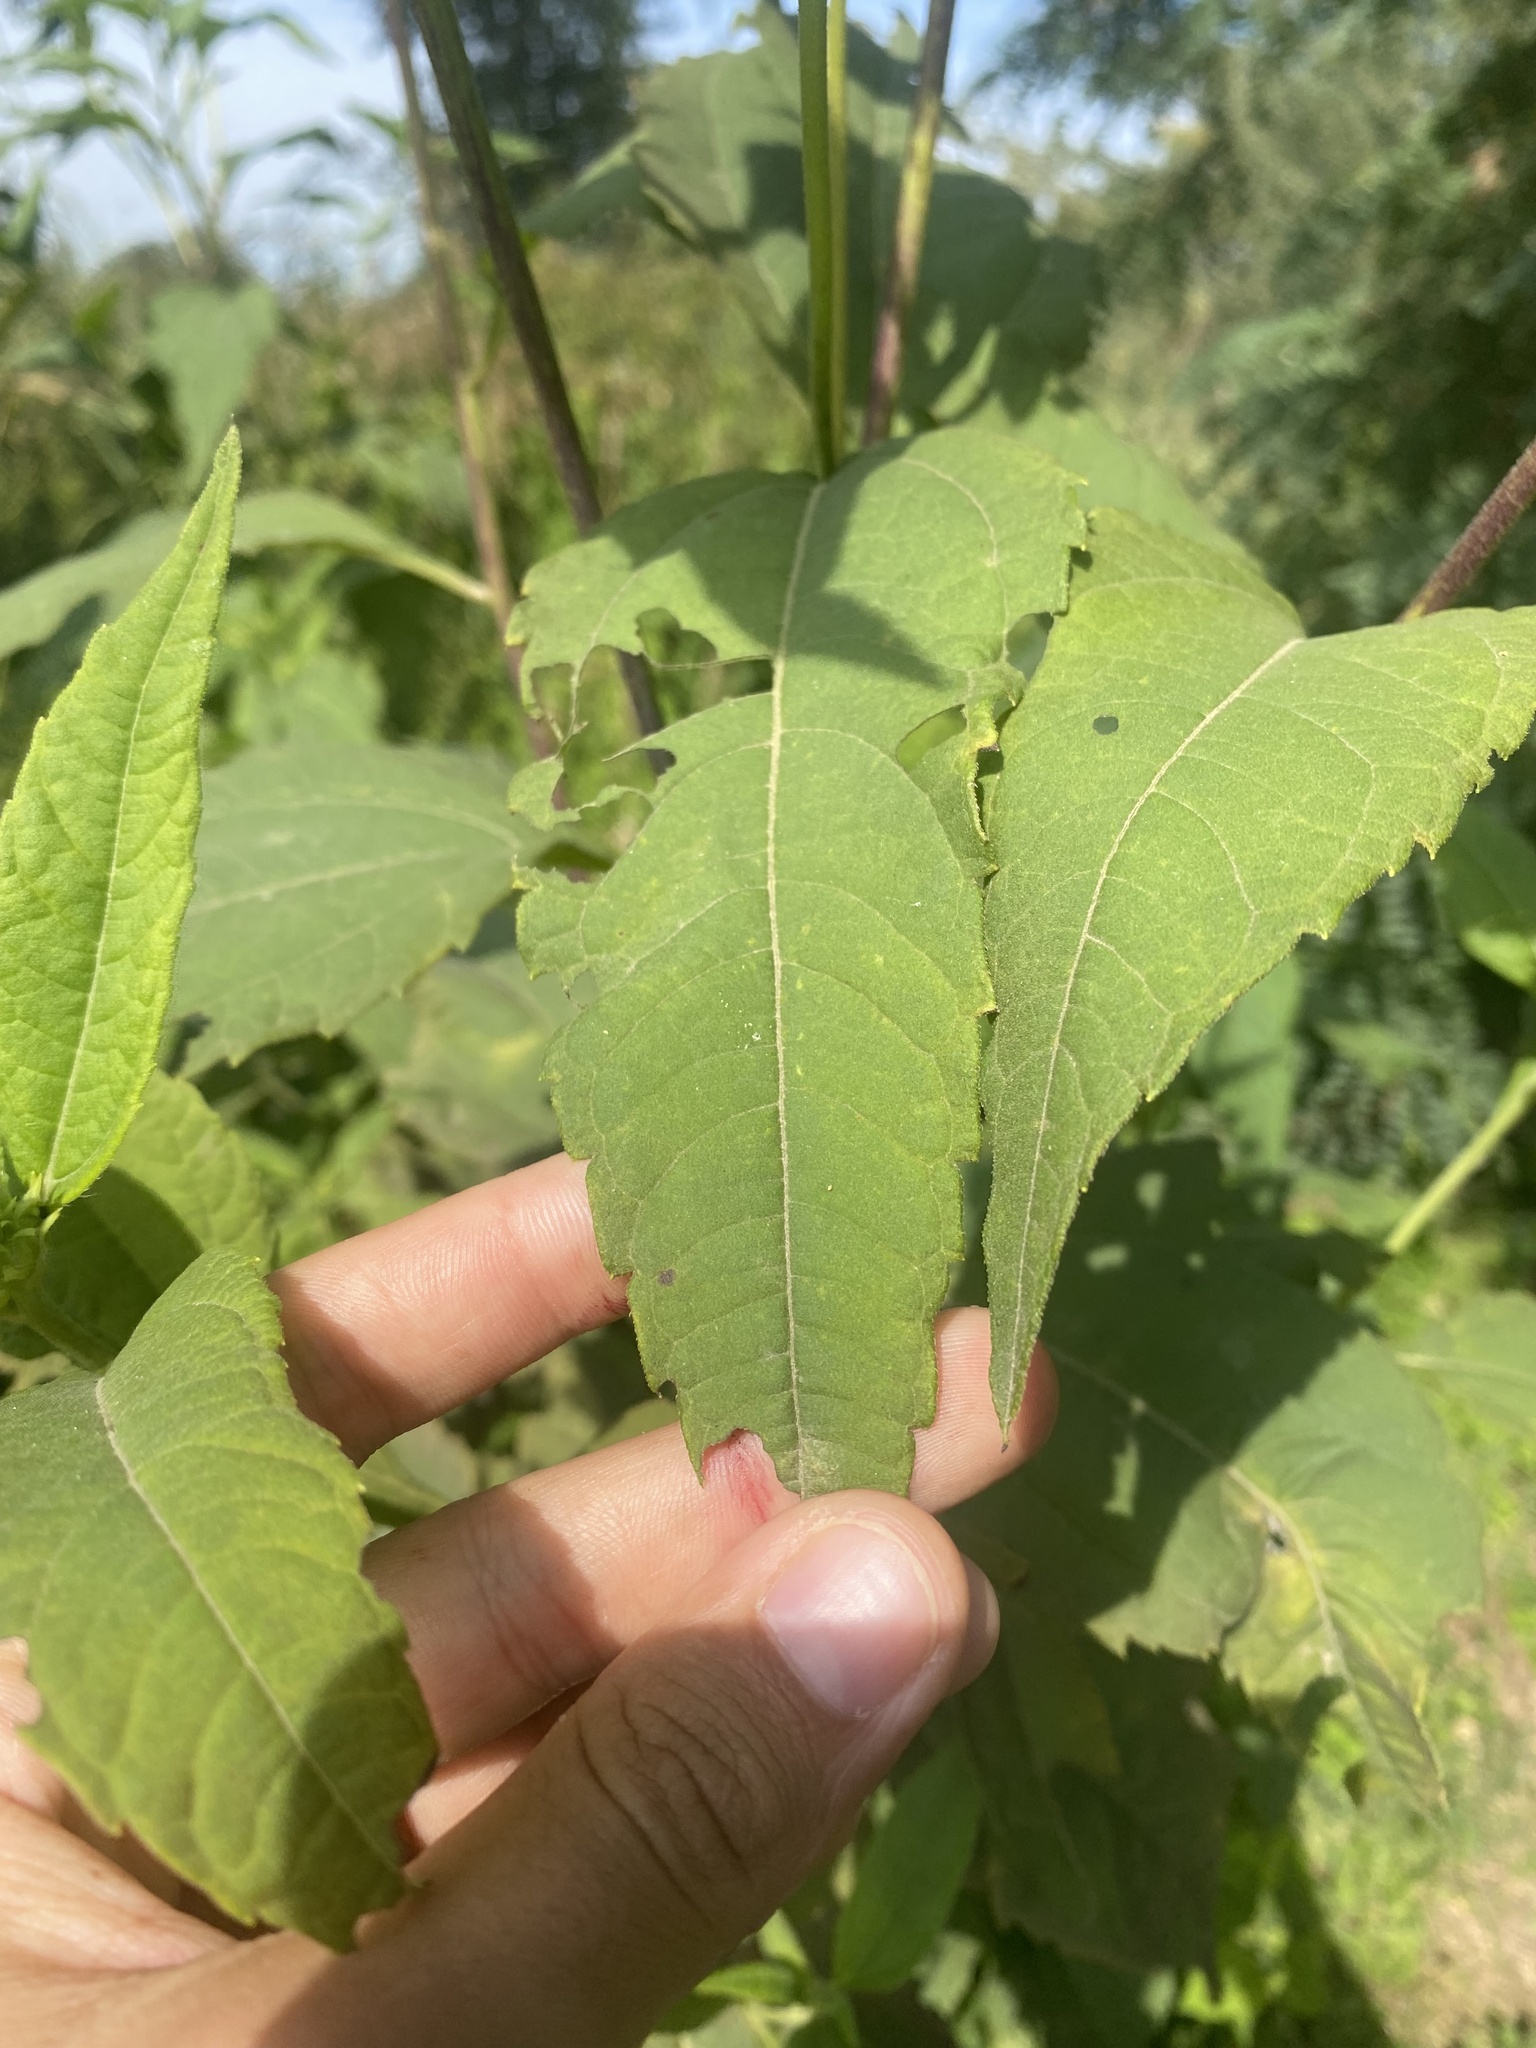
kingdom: Plantae
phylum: Tracheophyta
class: Magnoliopsida
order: Asterales
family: Asteraceae
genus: Helianthus
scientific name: Helianthus tuberosus
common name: Jerusalem artichoke
